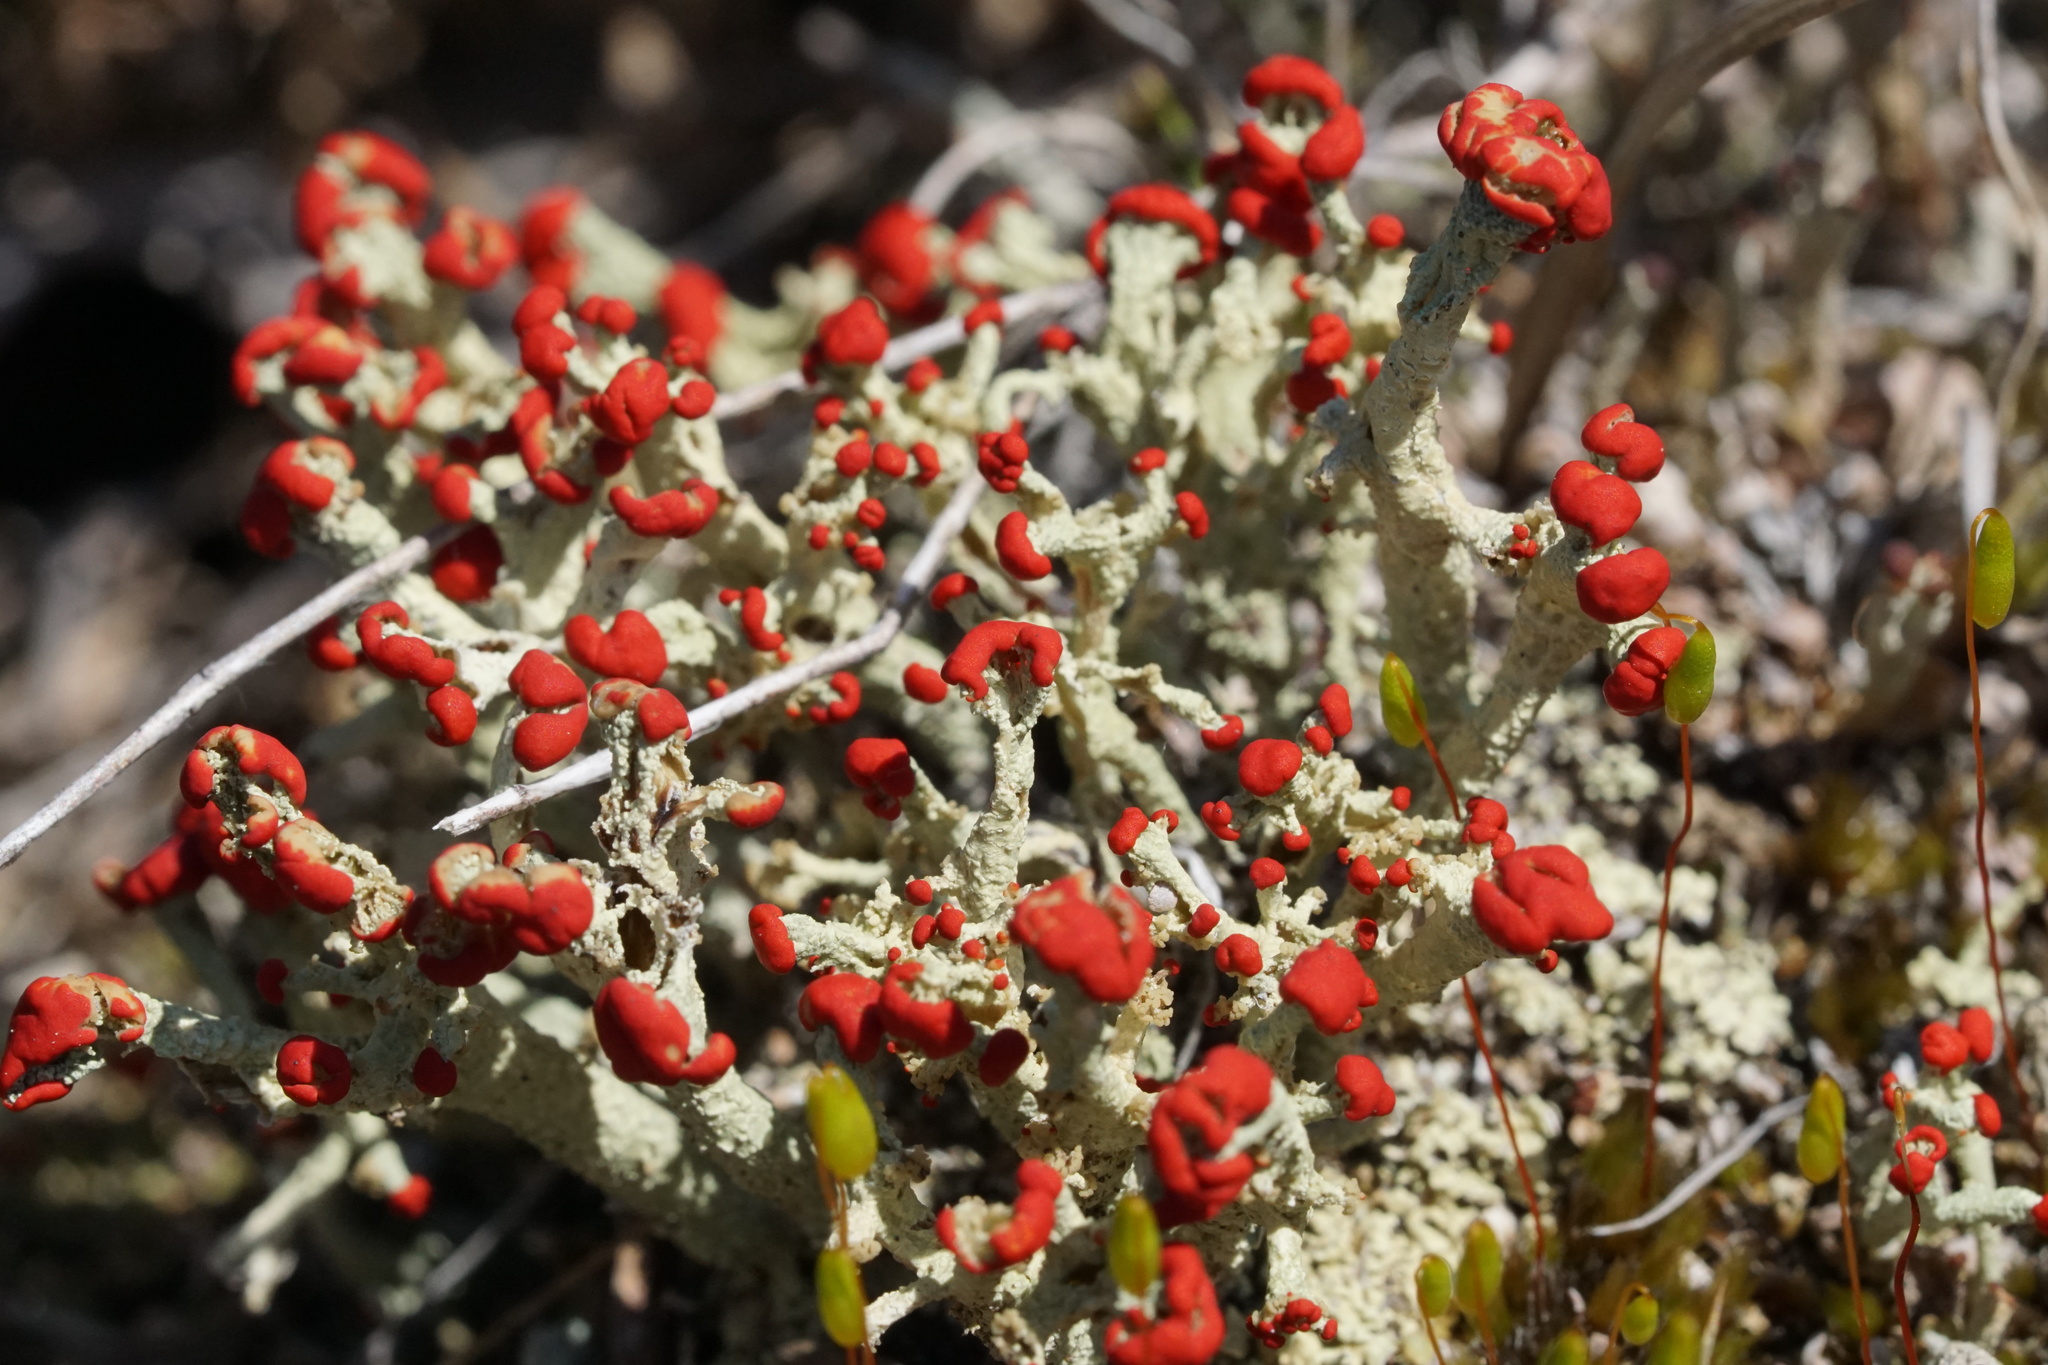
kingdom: Fungi
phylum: Ascomycota
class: Lecanoromycetes
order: Lecanorales
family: Cladoniaceae
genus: Cladonia
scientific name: Cladonia cristatella
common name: British soldier lichen
